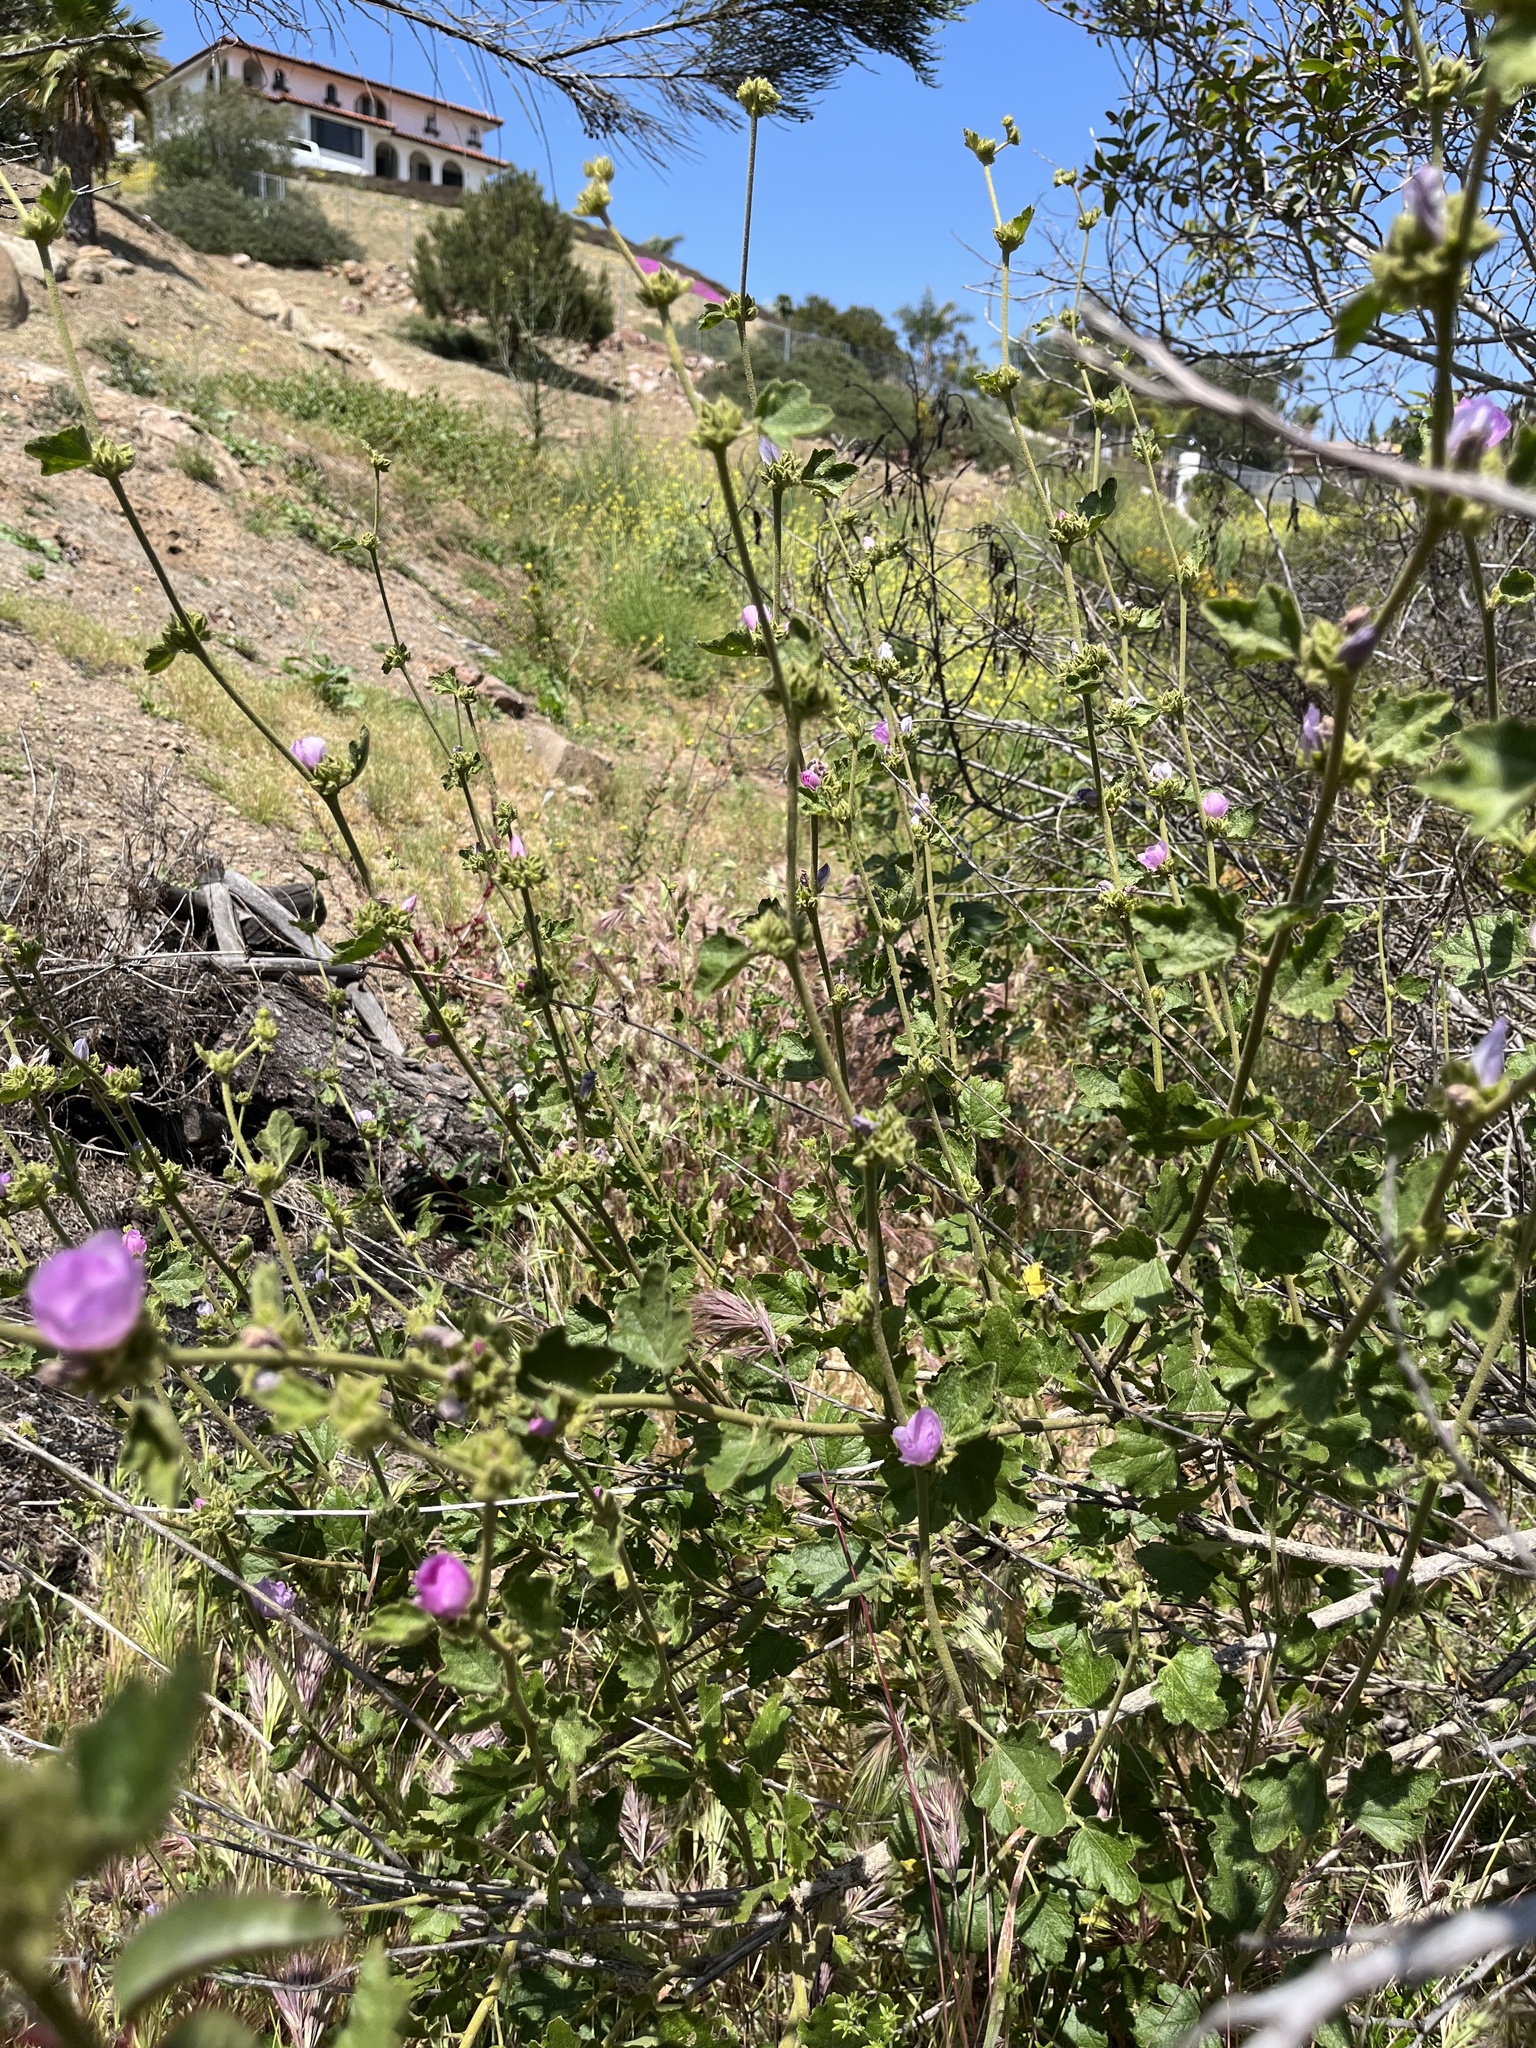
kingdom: Plantae
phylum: Tracheophyta
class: Magnoliopsida
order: Malvales
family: Malvaceae
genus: Malacothamnus
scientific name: Malacothamnus densiflorus
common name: Yellow-stem bush-mallow
